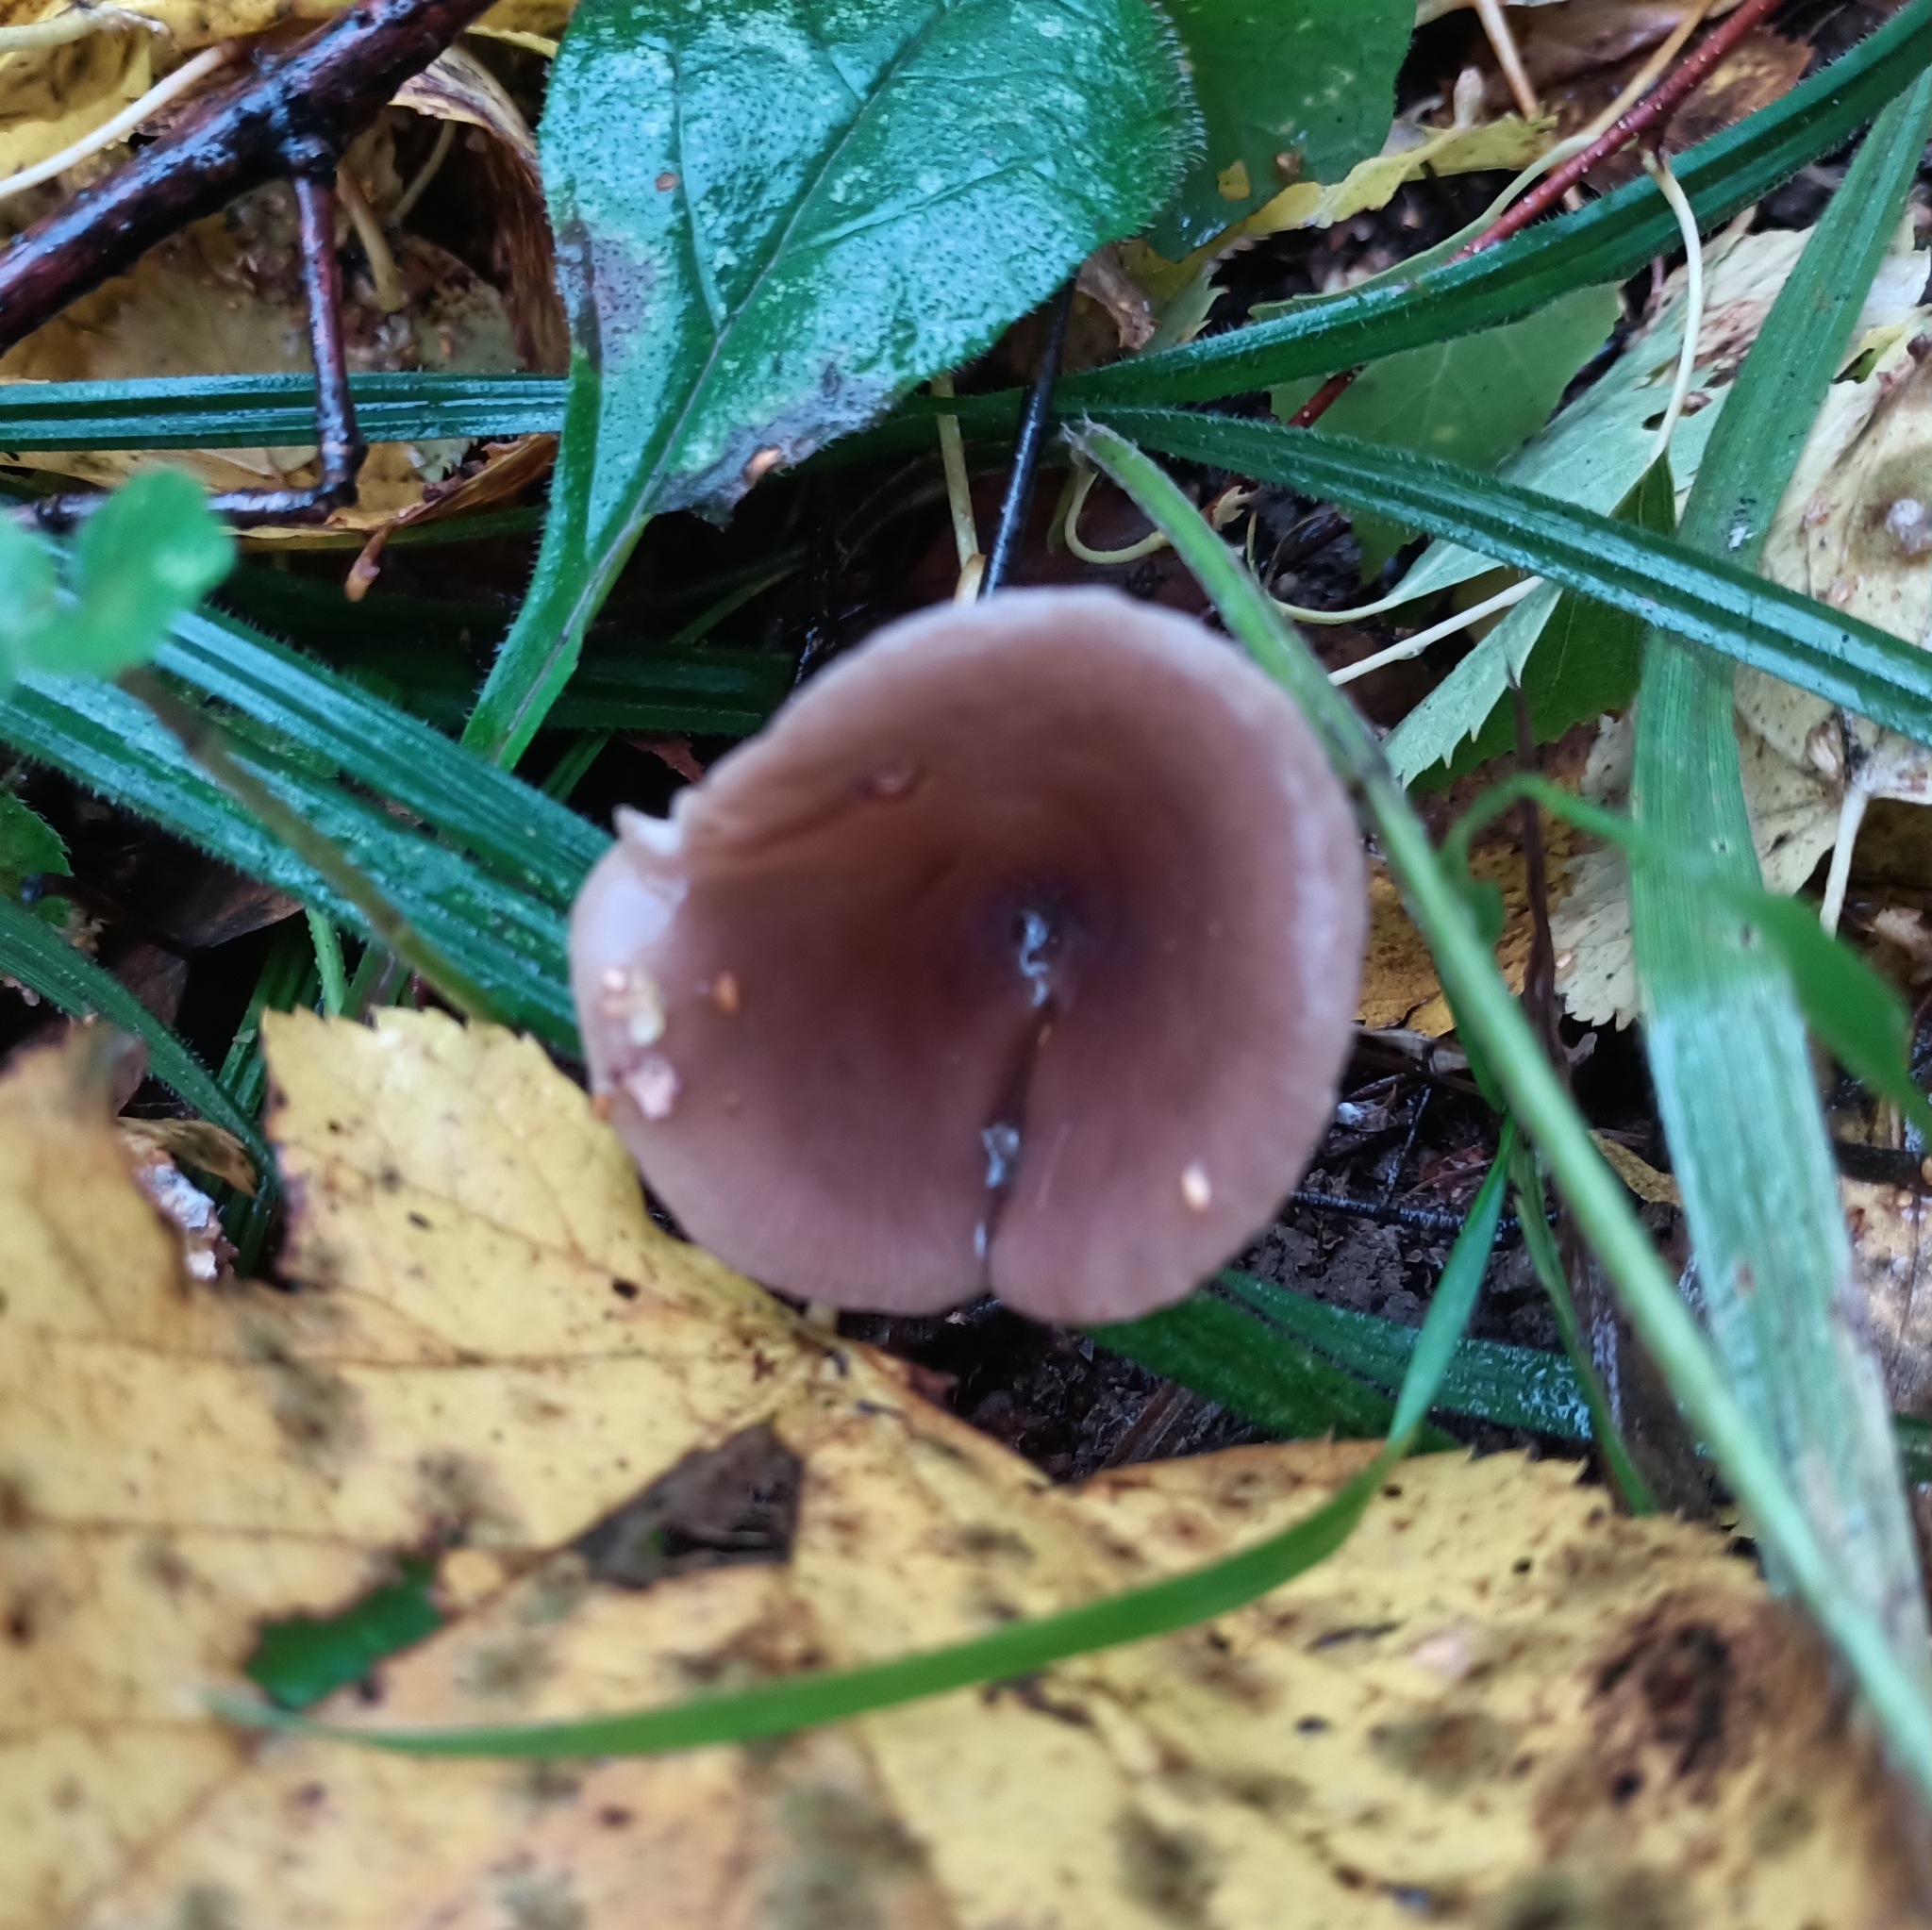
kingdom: Fungi
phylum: Basidiomycota
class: Agaricomycetes
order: Agaricales
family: Pseudoclitocybaceae
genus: Pseudoclitocybe
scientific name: Pseudoclitocybe cyathiformis
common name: Goblet
